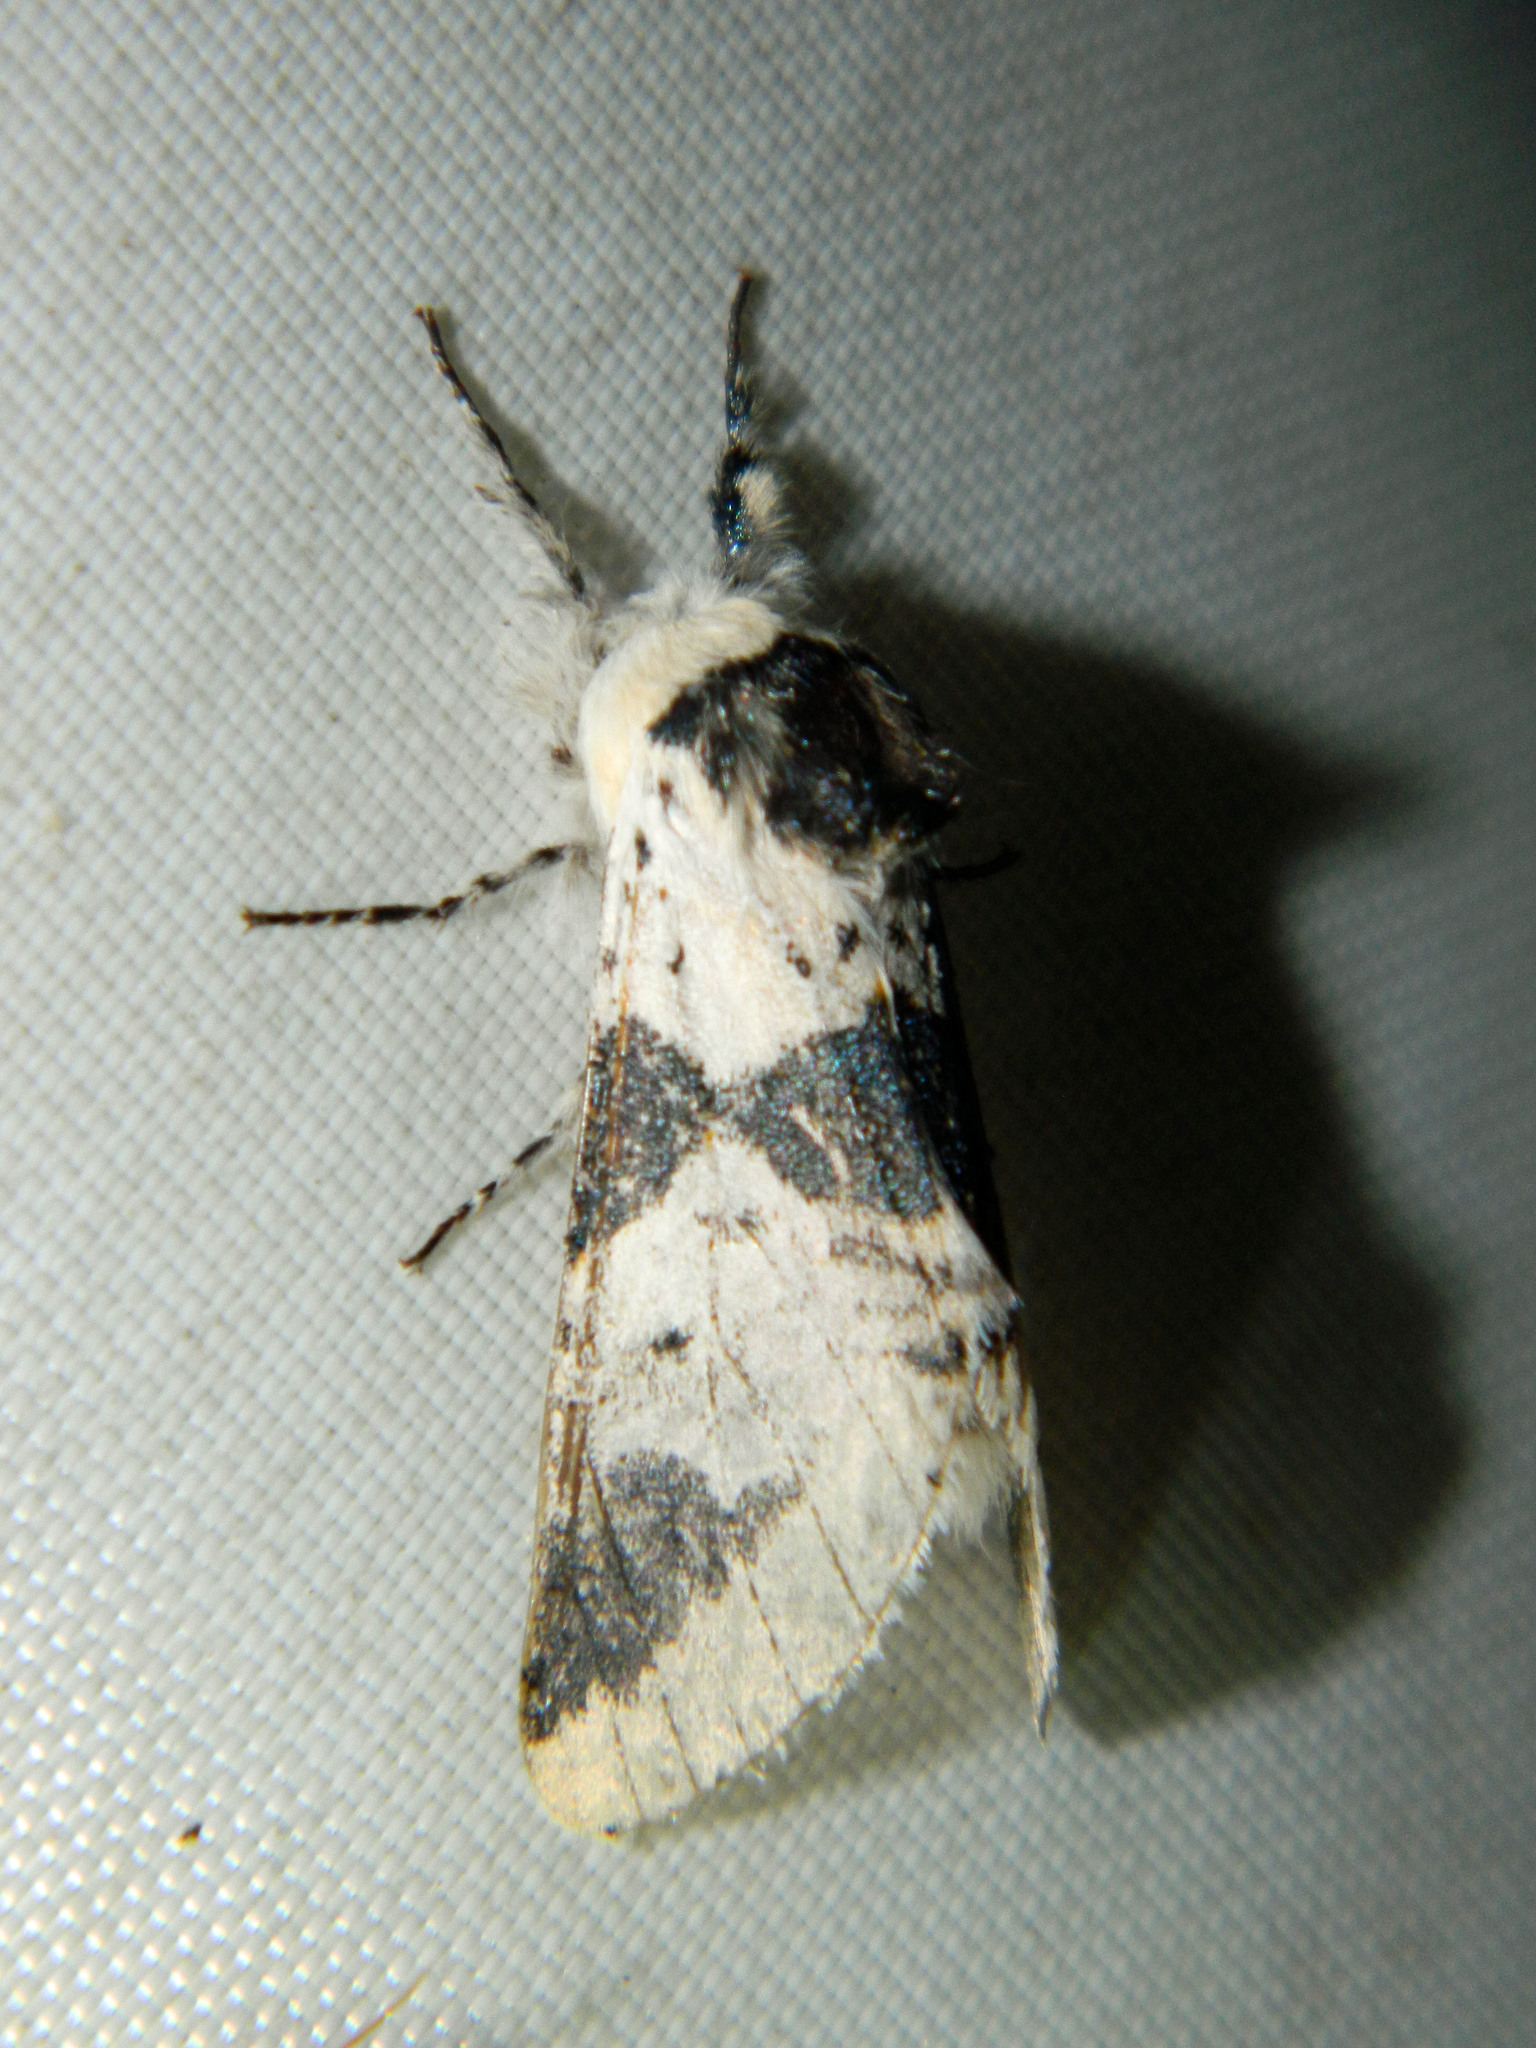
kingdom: Animalia
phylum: Arthropoda
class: Insecta
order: Lepidoptera
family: Notodontidae
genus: Furcula
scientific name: Furcula modesta
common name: Modest furcula moth
